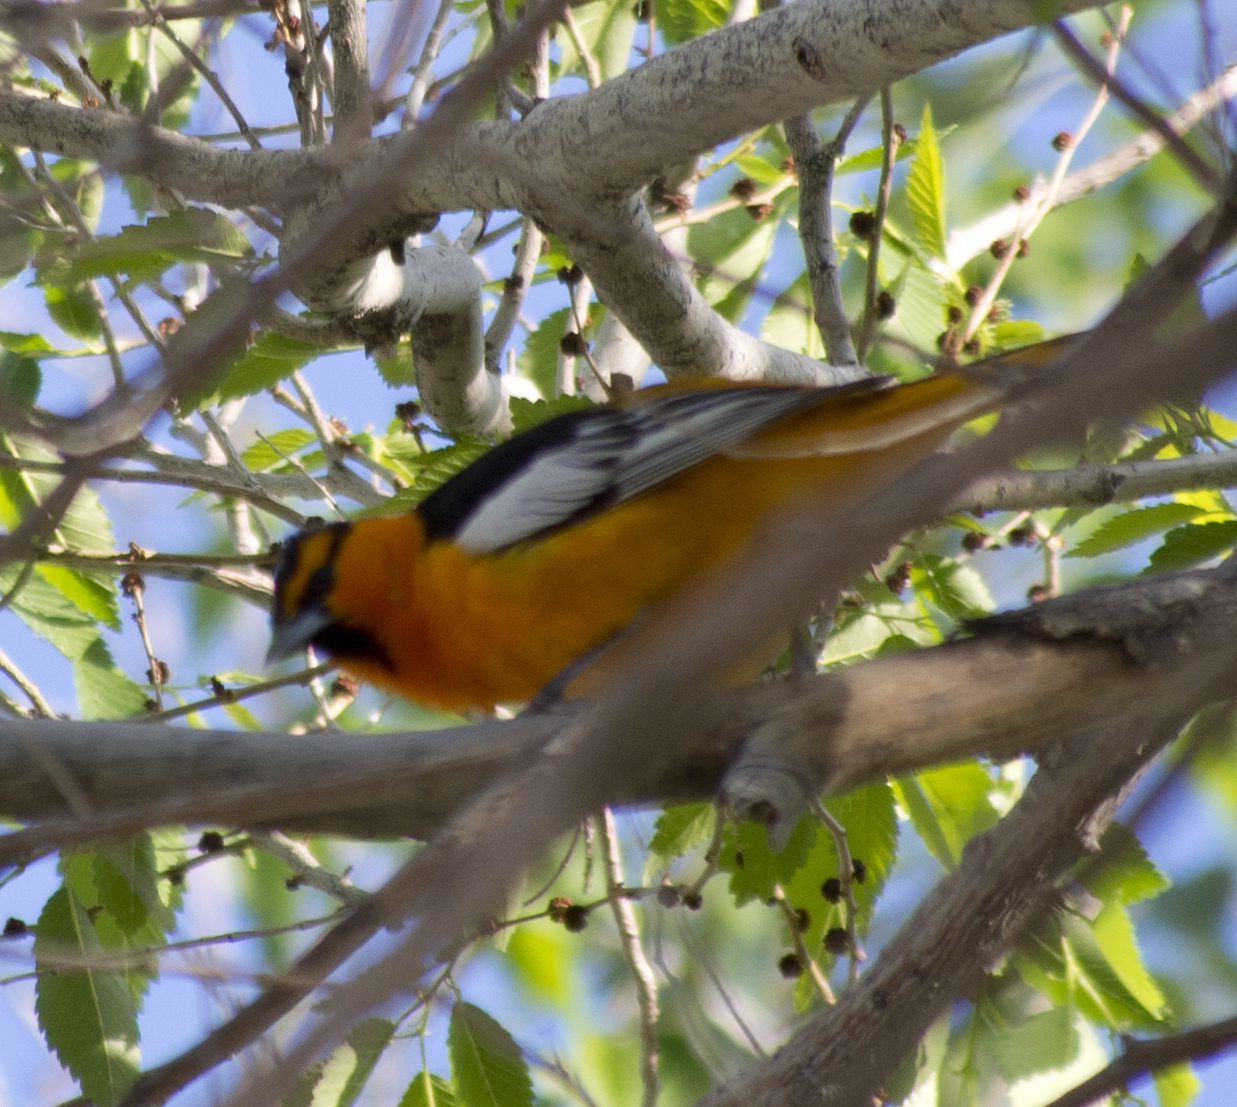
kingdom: Animalia
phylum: Chordata
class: Aves
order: Passeriformes
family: Icteridae
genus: Icterus
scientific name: Icterus bullockii
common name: Bullock's oriole
